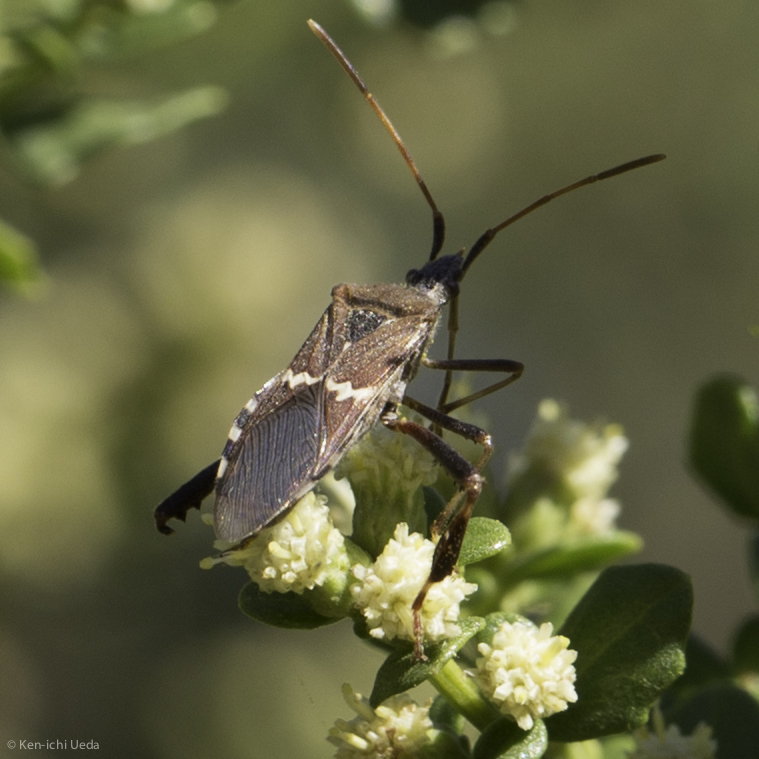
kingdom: Animalia
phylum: Arthropoda
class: Insecta
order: Hemiptera
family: Coreidae
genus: Leptoglossus
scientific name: Leptoglossus clypealis
